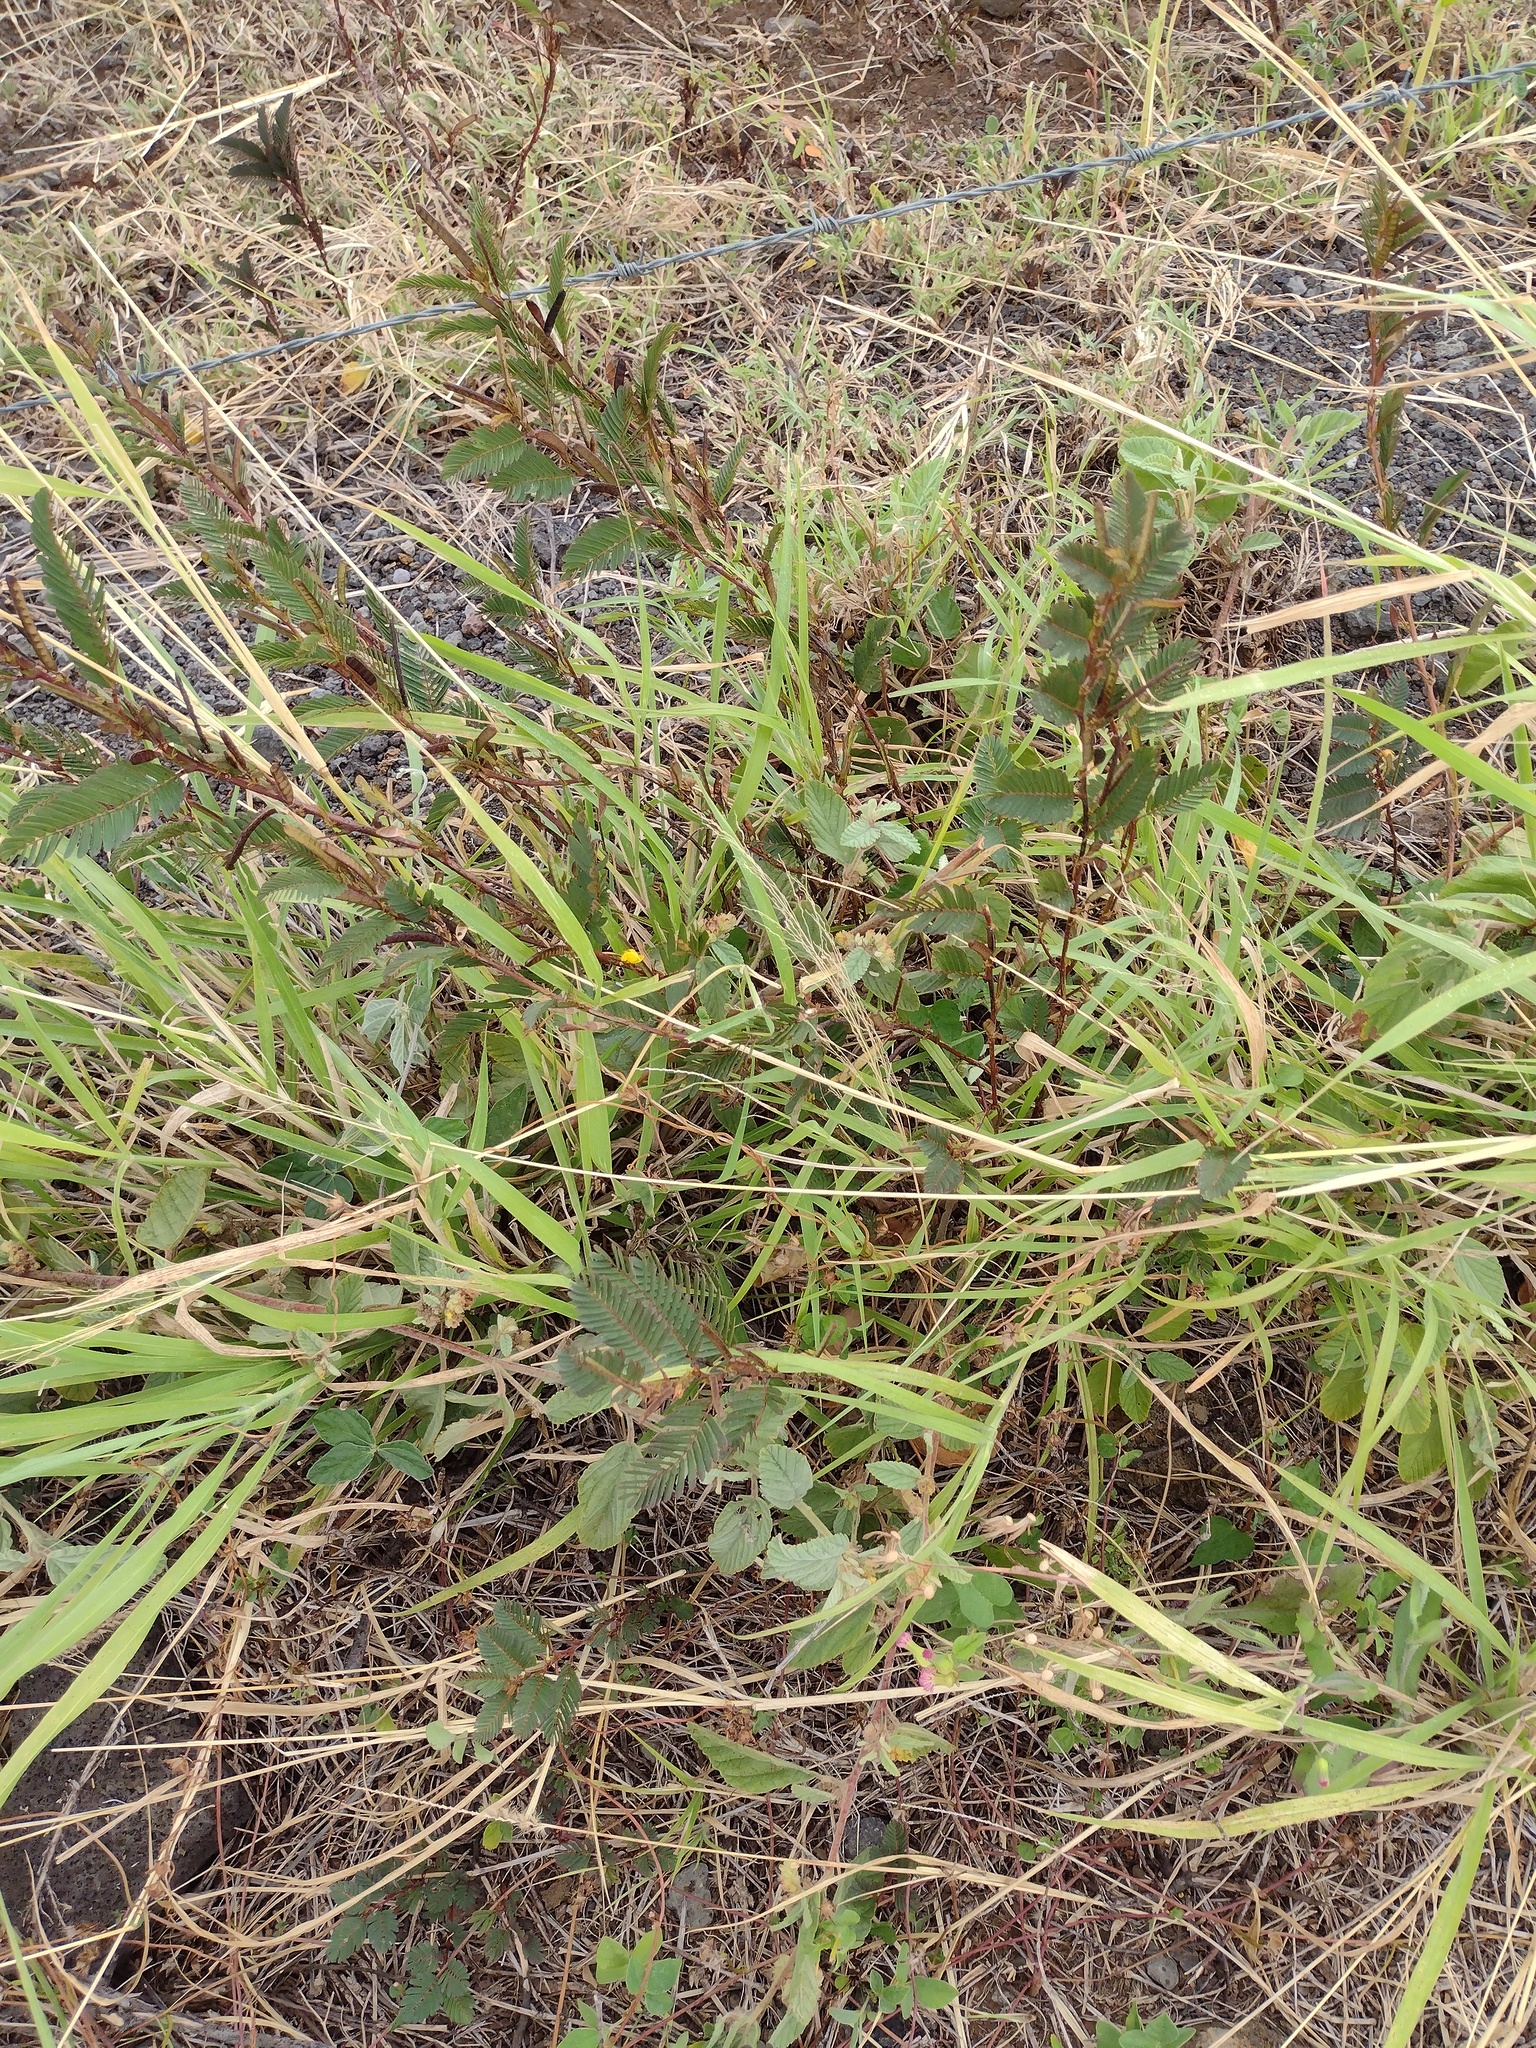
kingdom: Plantae
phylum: Tracheophyta
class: Magnoliopsida
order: Fabales
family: Fabaceae
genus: Chamaecrista
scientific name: Chamaecrista nictitans
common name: Sensitive cassia
